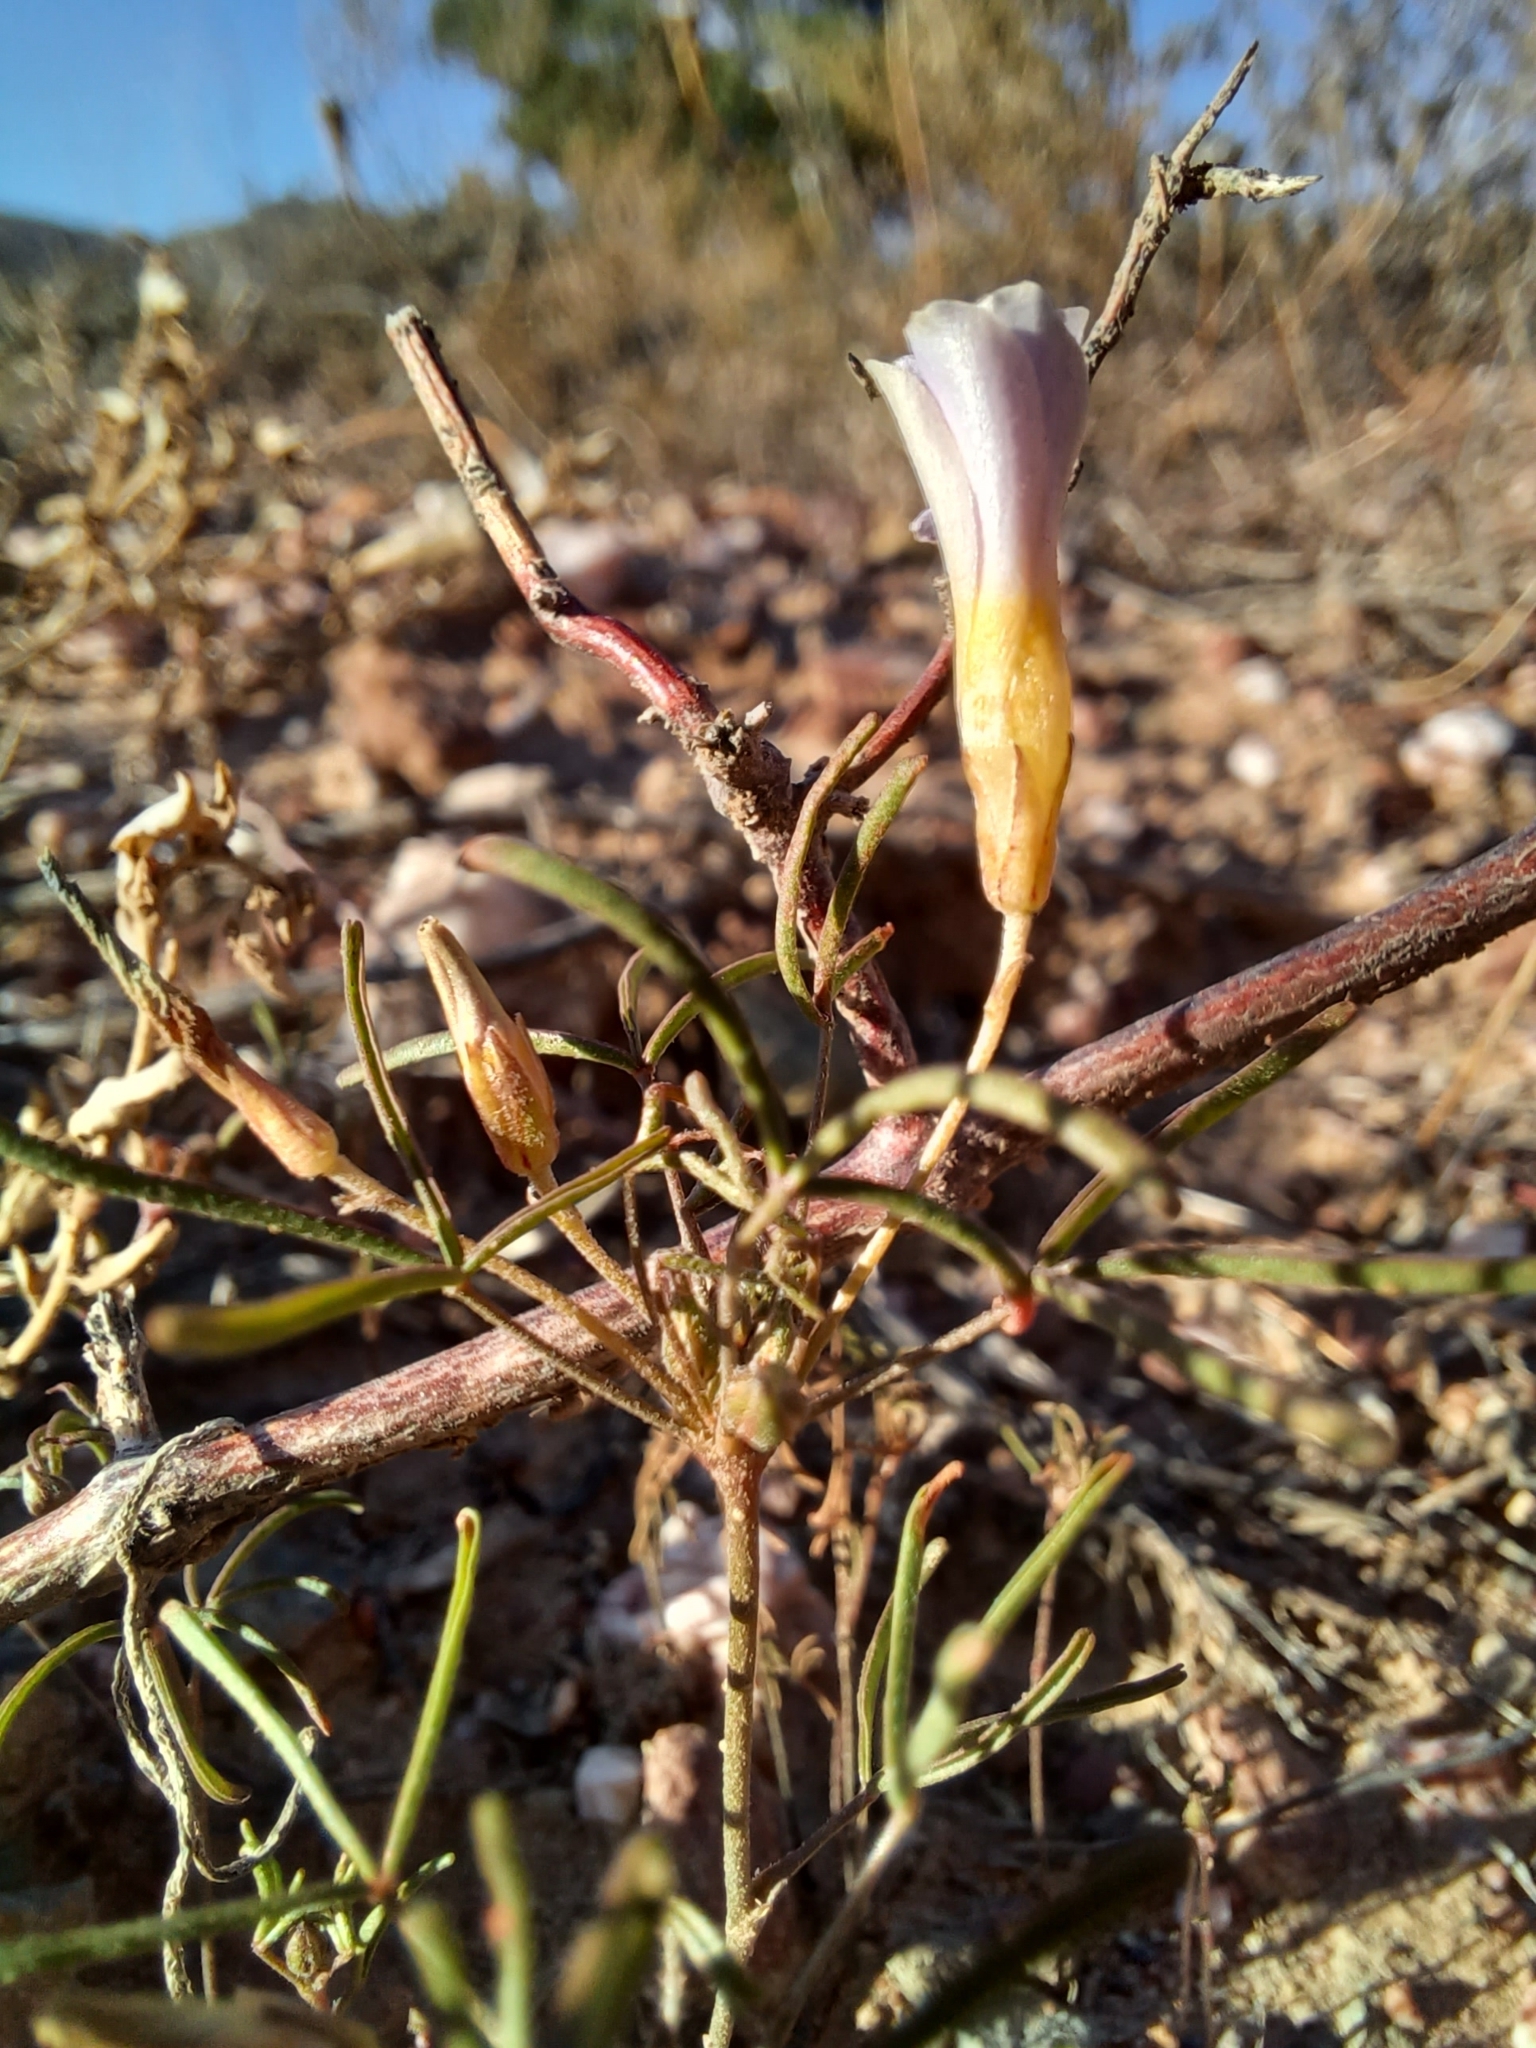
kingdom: Plantae
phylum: Tracheophyta
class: Magnoliopsida
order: Oxalidales
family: Oxalidaceae
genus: Oxalis
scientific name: Oxalis burkei
